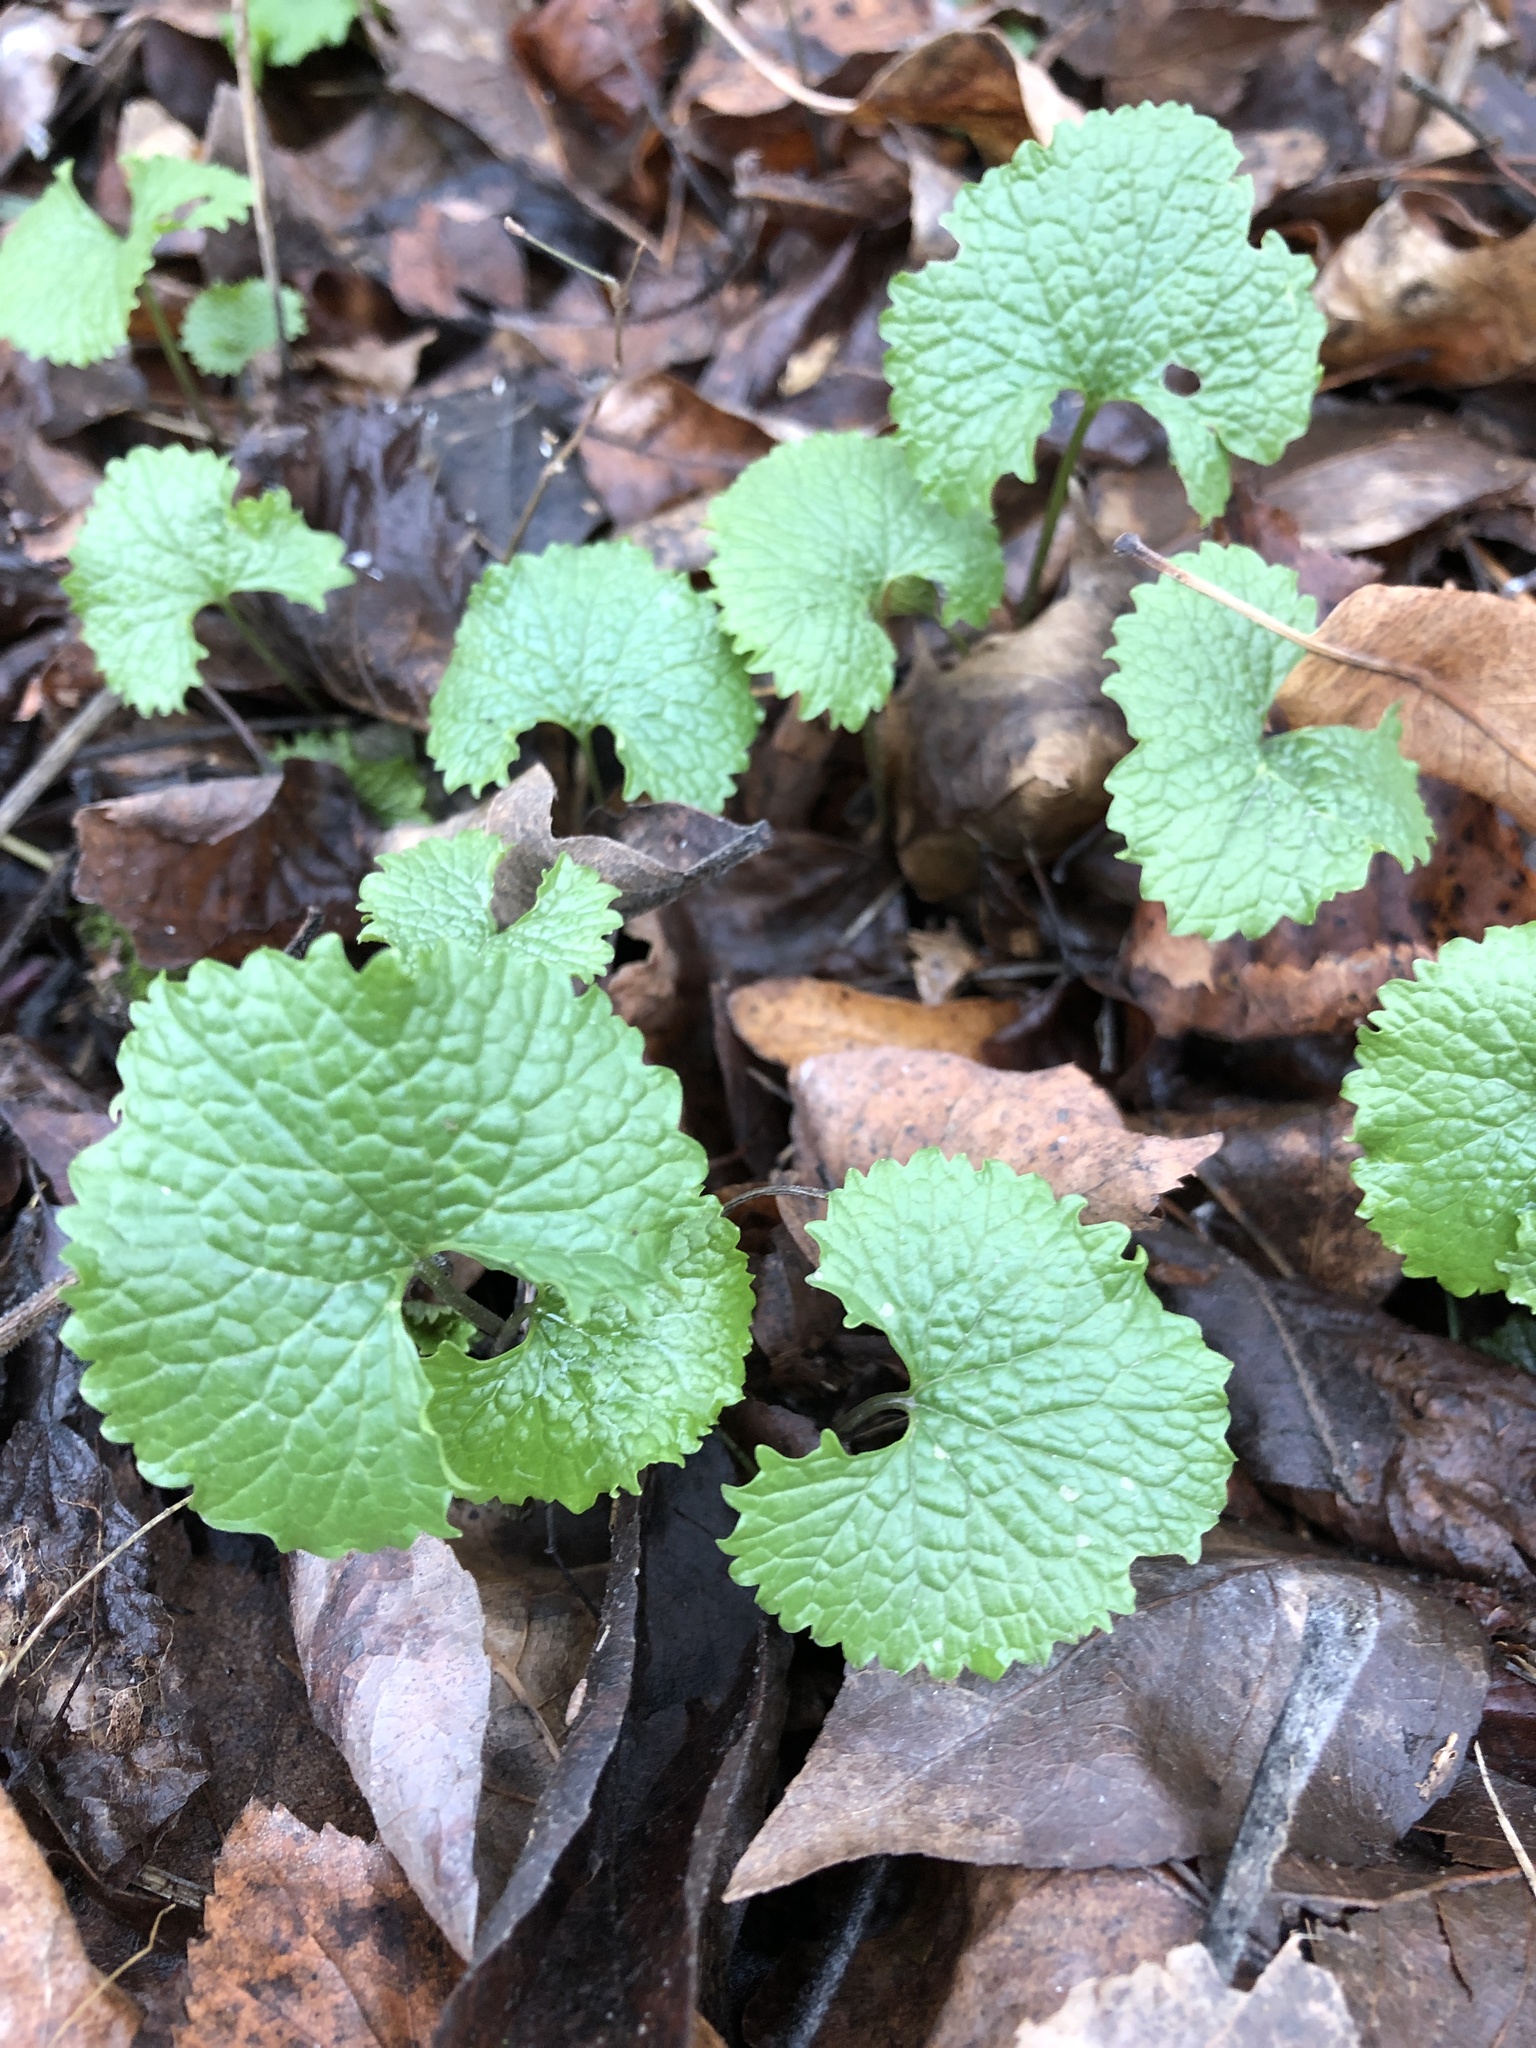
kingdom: Plantae
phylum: Tracheophyta
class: Magnoliopsida
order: Brassicales
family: Brassicaceae
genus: Alliaria
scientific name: Alliaria petiolata
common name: Garlic mustard
